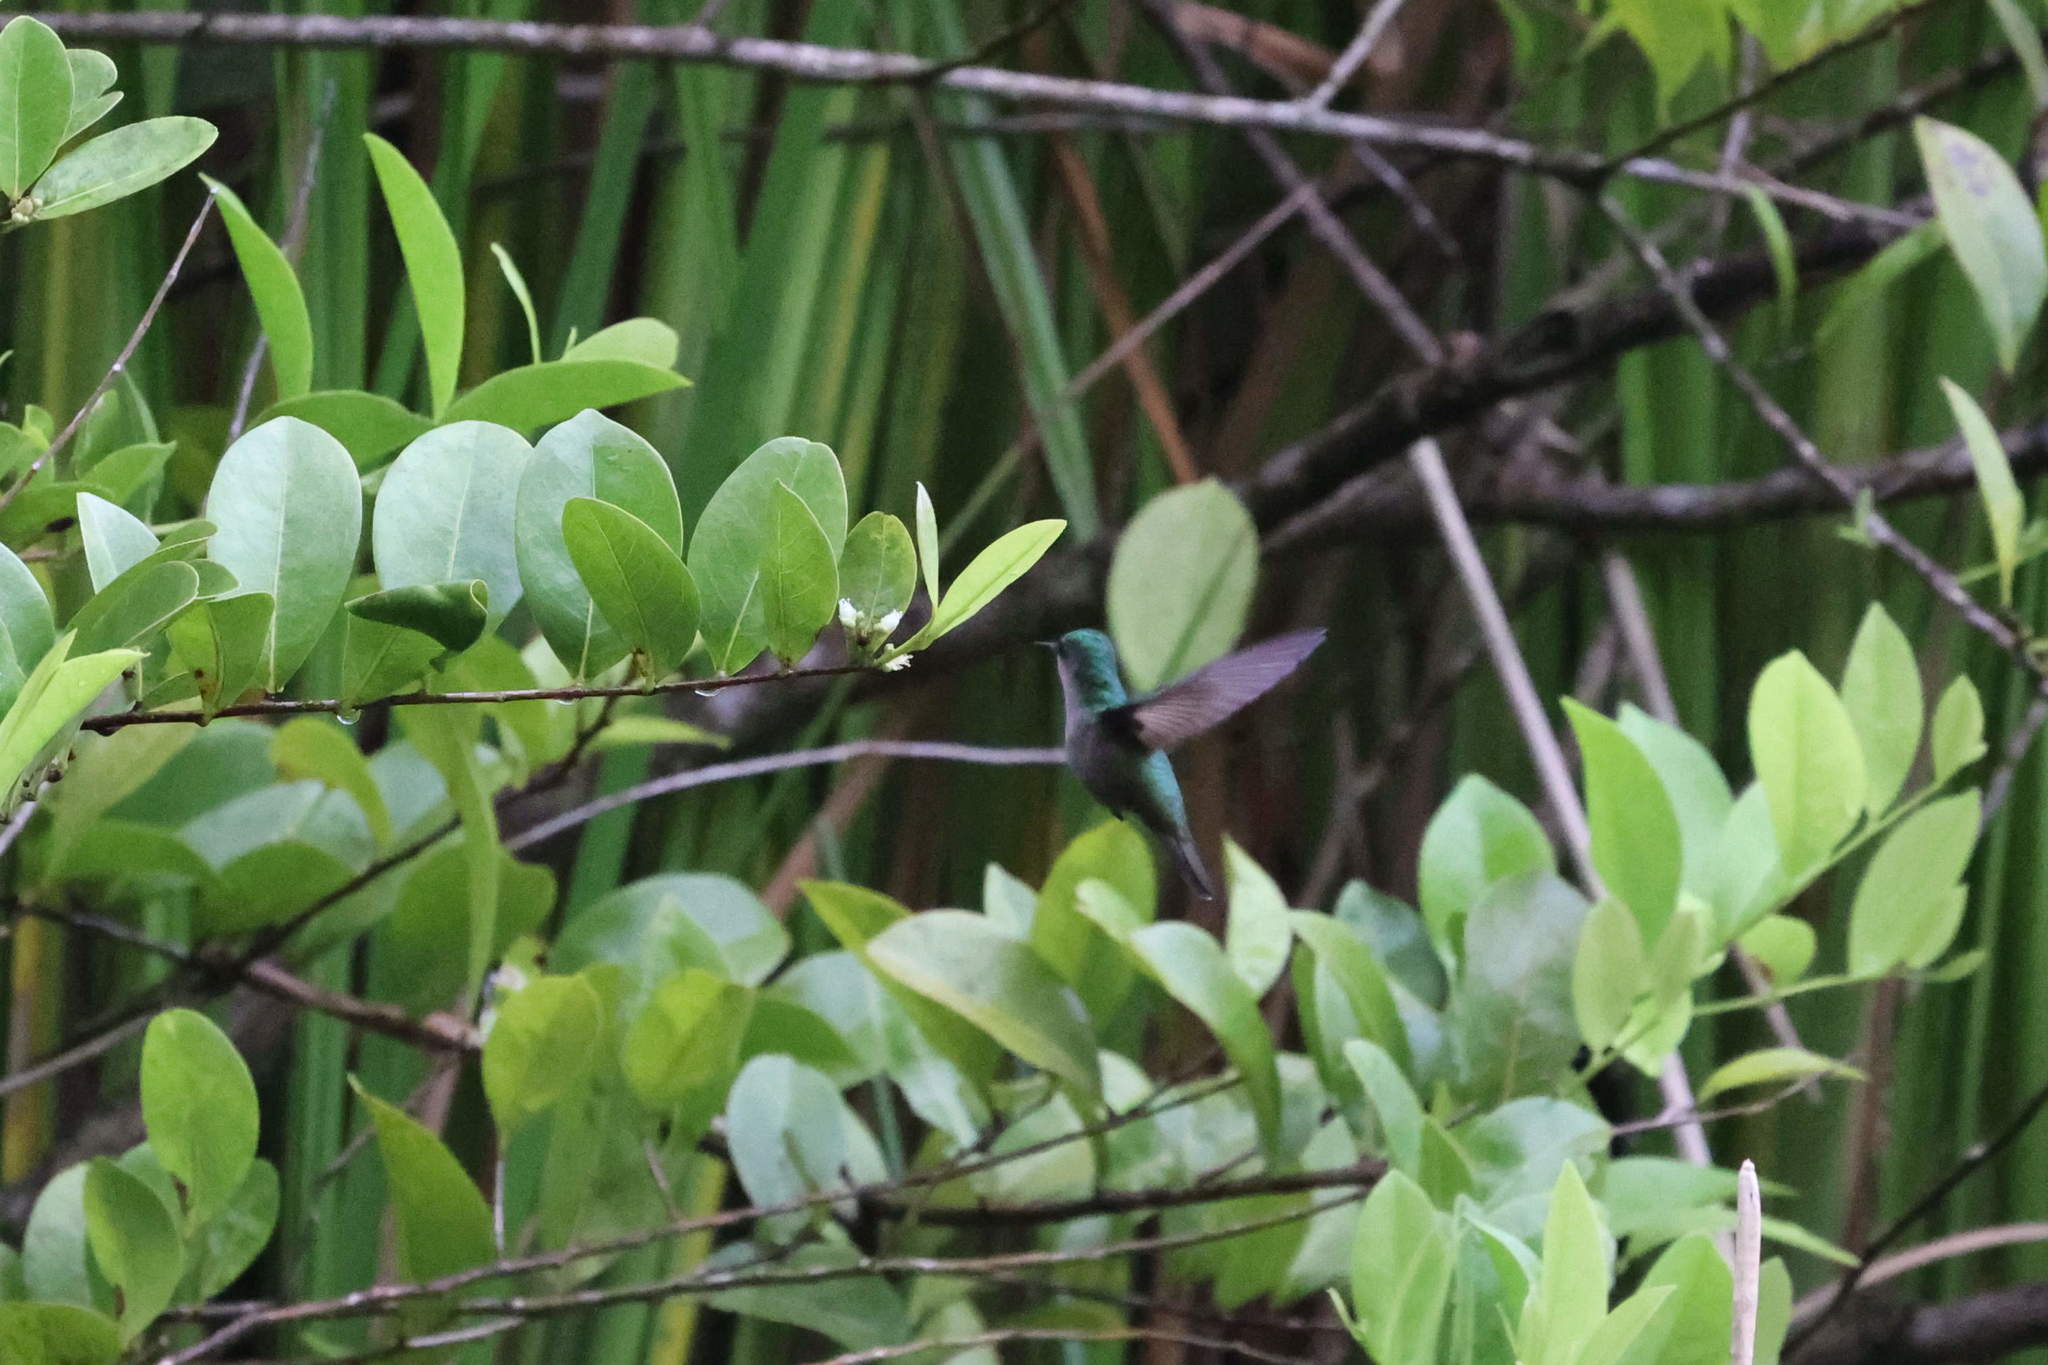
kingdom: Animalia
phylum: Chordata
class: Aves
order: Apodiformes
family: Trochilidae
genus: Orthorhyncus
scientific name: Orthorhyncus cristatus
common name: Antillean crested hummingbird
